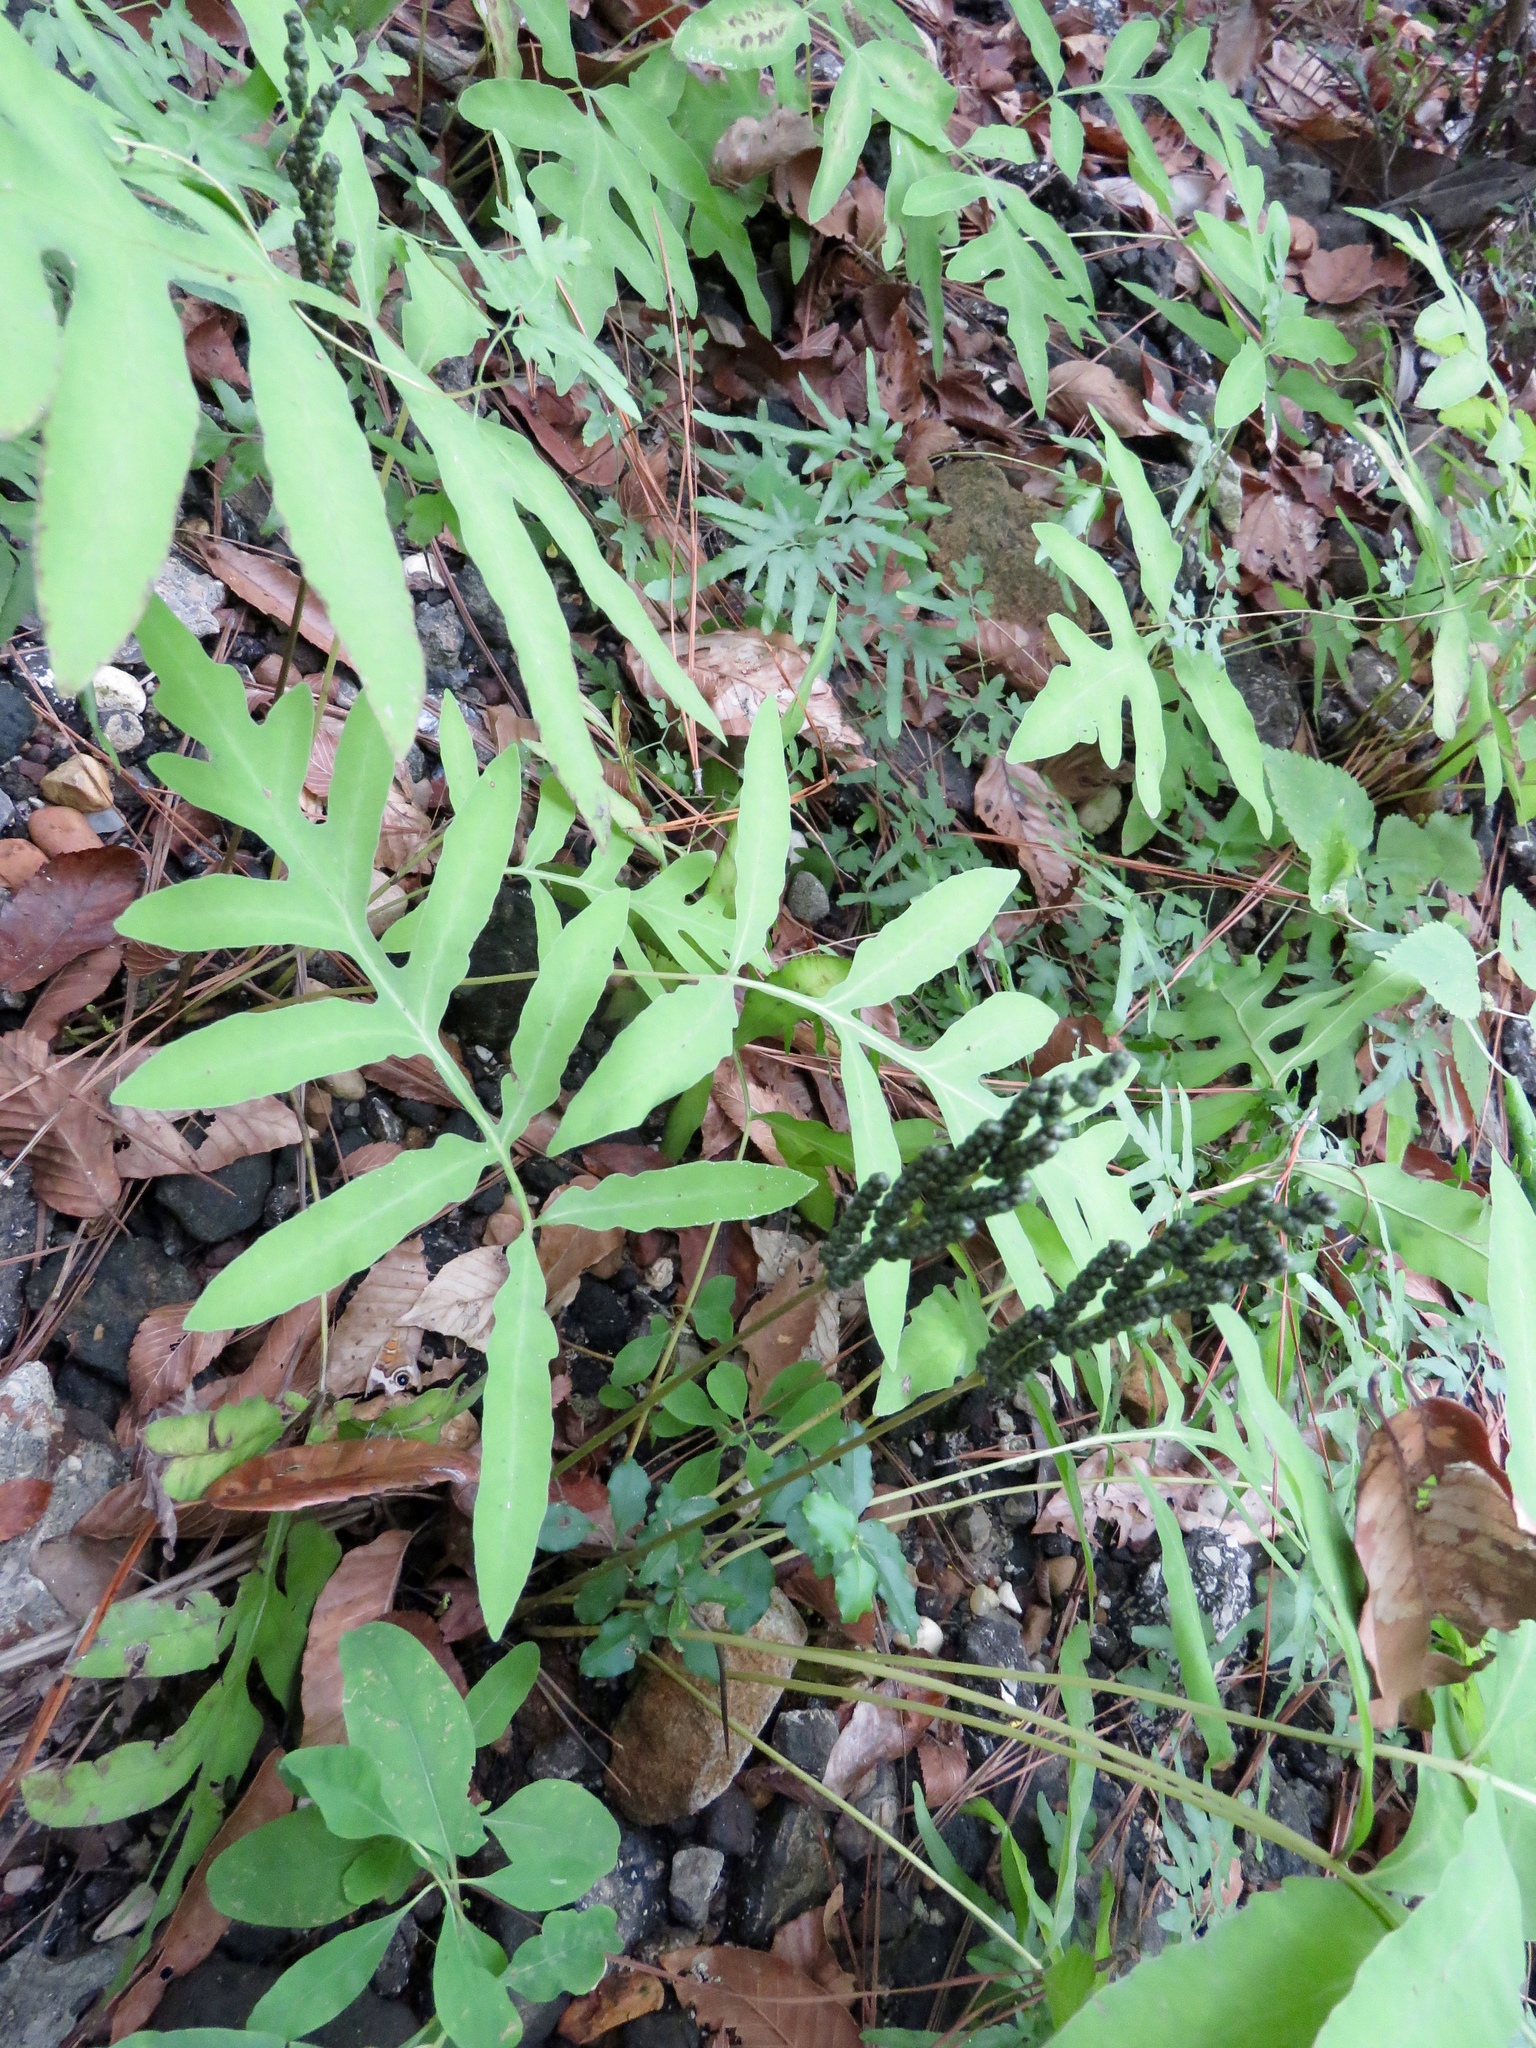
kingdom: Plantae
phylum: Tracheophyta
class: Polypodiopsida
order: Polypodiales
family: Onocleaceae
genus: Onoclea
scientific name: Onoclea sensibilis
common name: Sensitive fern
